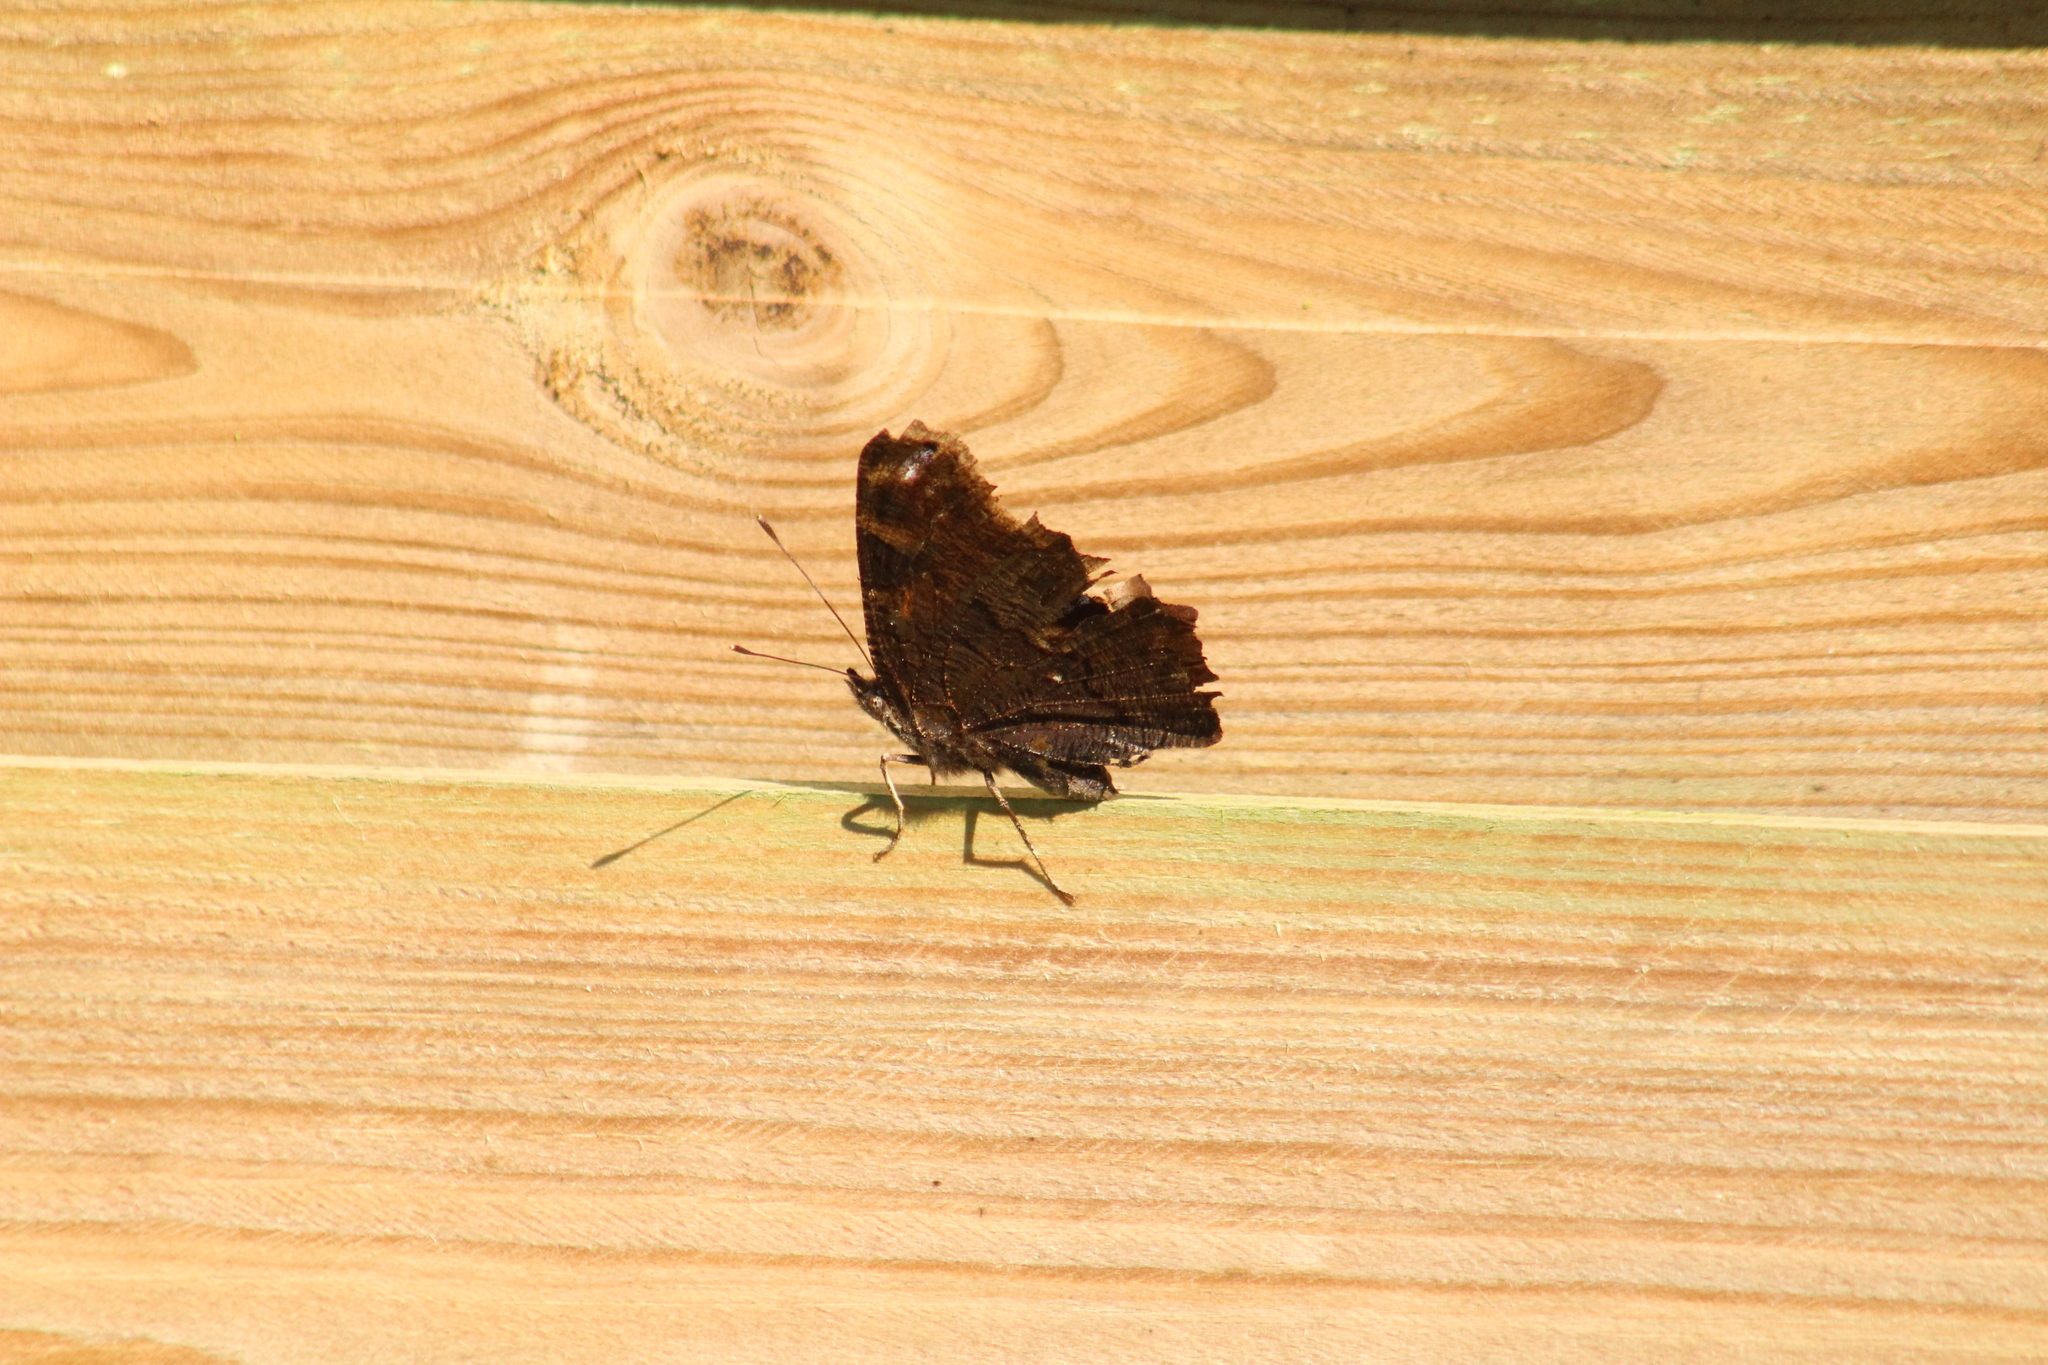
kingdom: Animalia
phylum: Arthropoda
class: Insecta
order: Lepidoptera
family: Nymphalidae
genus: Aglais
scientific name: Aglais io
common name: Peacock
